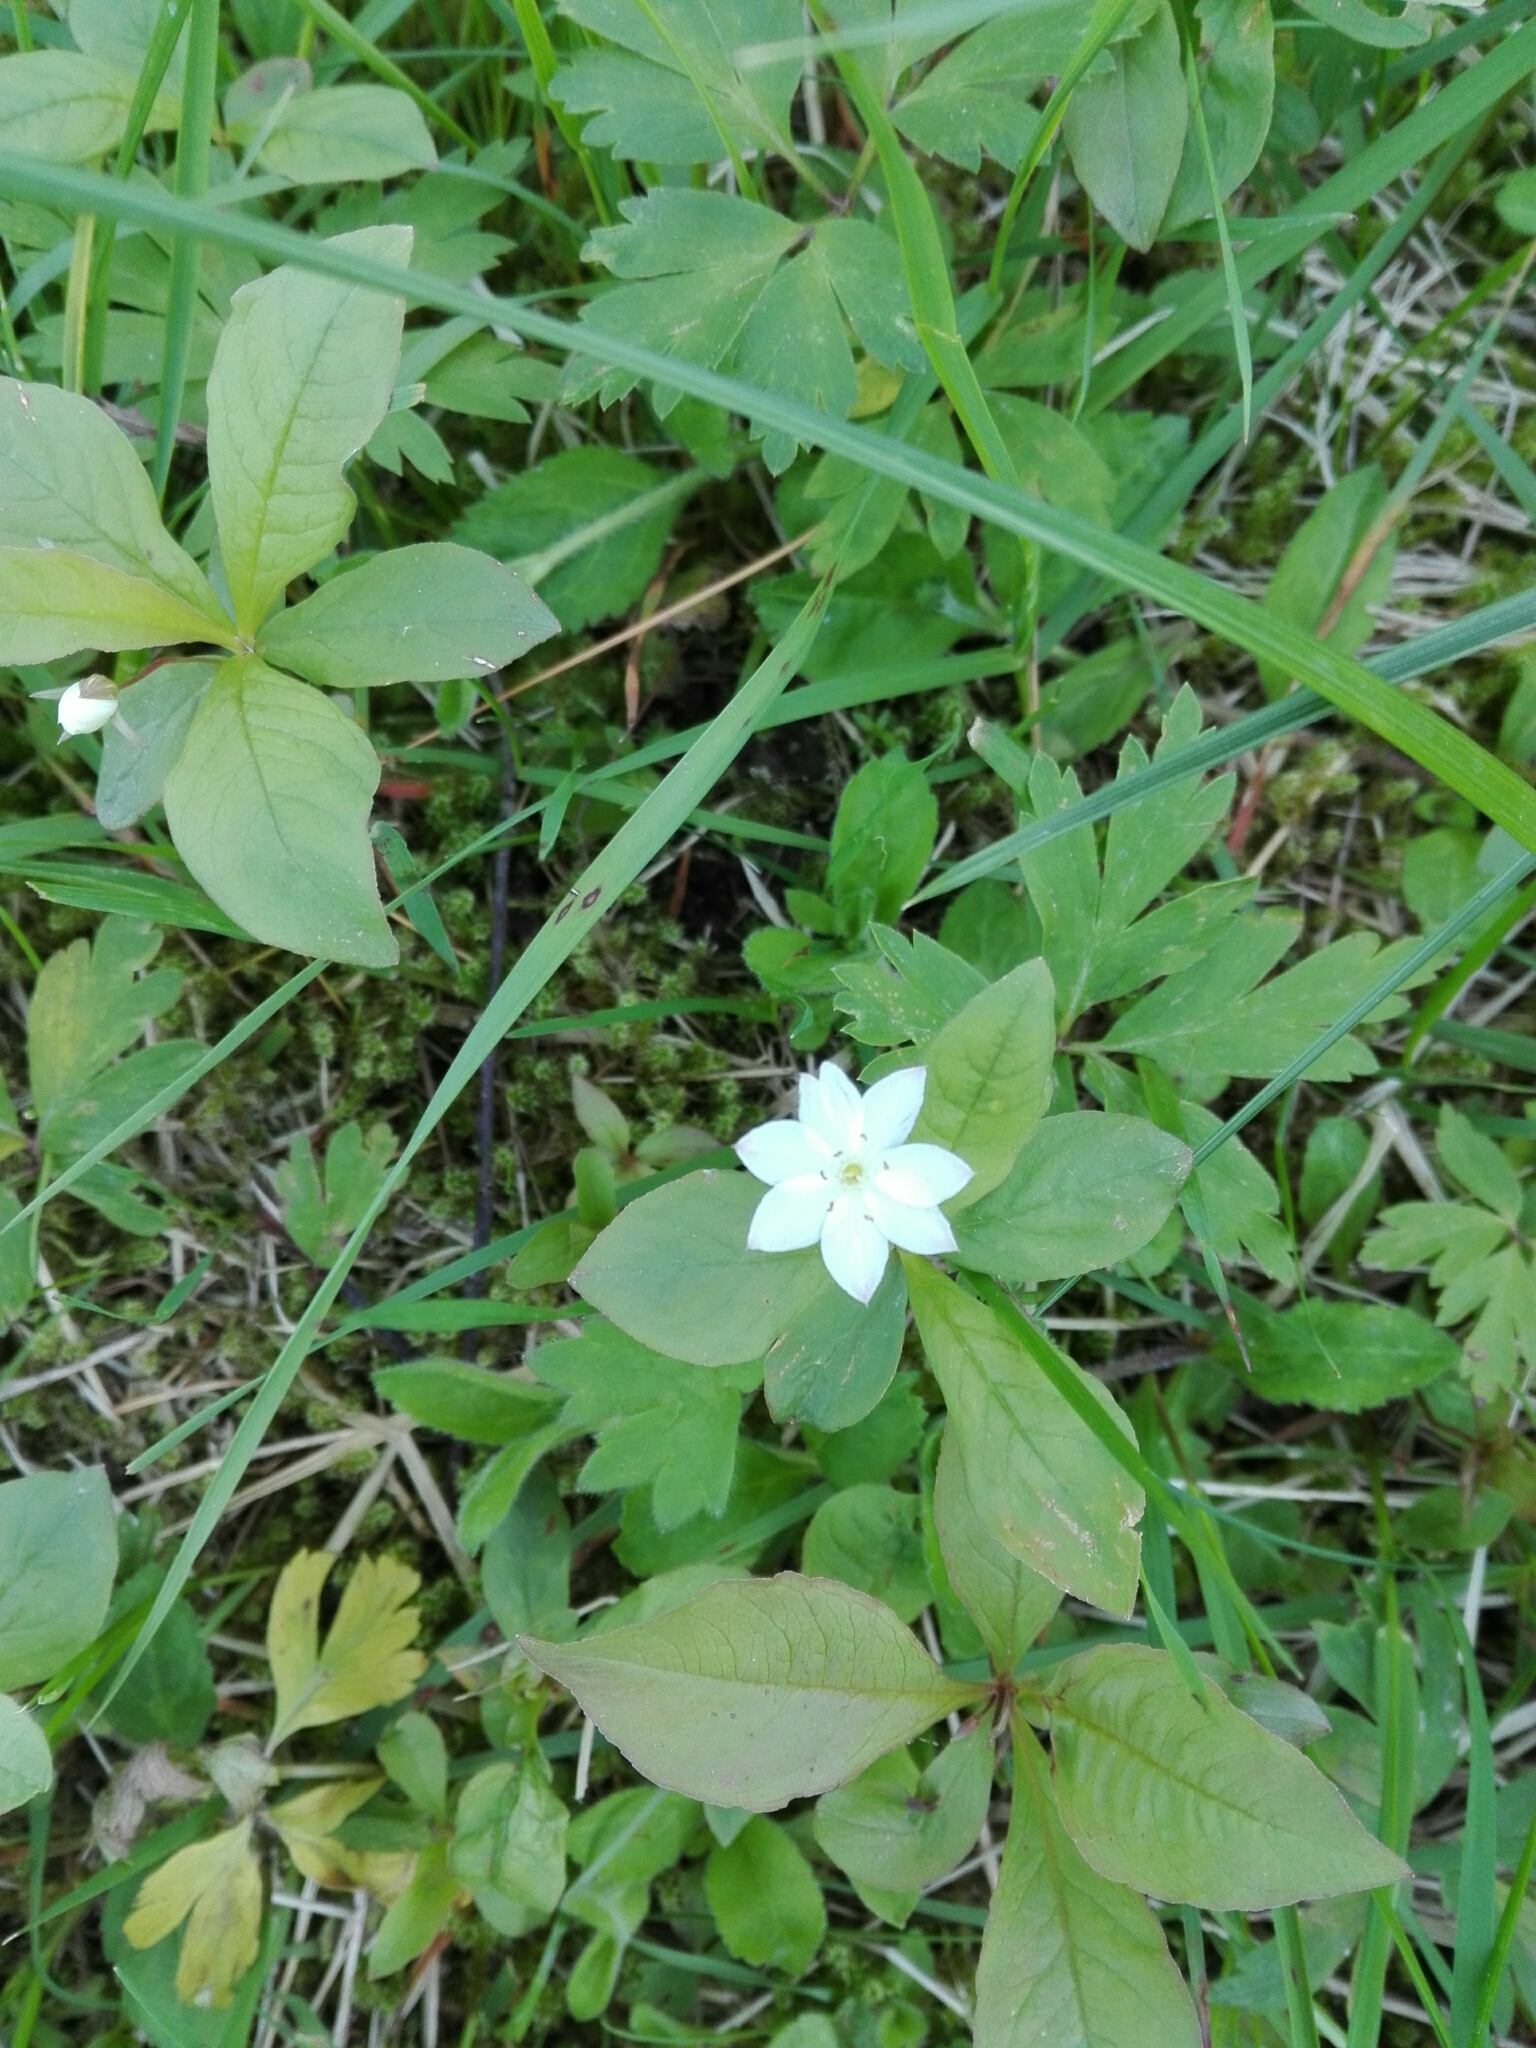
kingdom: Plantae
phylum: Tracheophyta
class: Magnoliopsida
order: Ericales
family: Primulaceae
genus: Lysimachia
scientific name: Lysimachia europaea
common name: Arctic starflower
